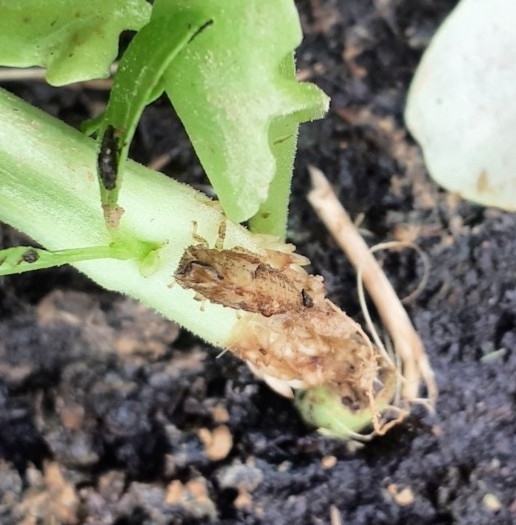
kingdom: Animalia
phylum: Arthropoda
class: Insecta
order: Hemiptera
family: Membracidae
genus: Stictocephala
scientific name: Stictocephala bisonia
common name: American buffalo treehopper
